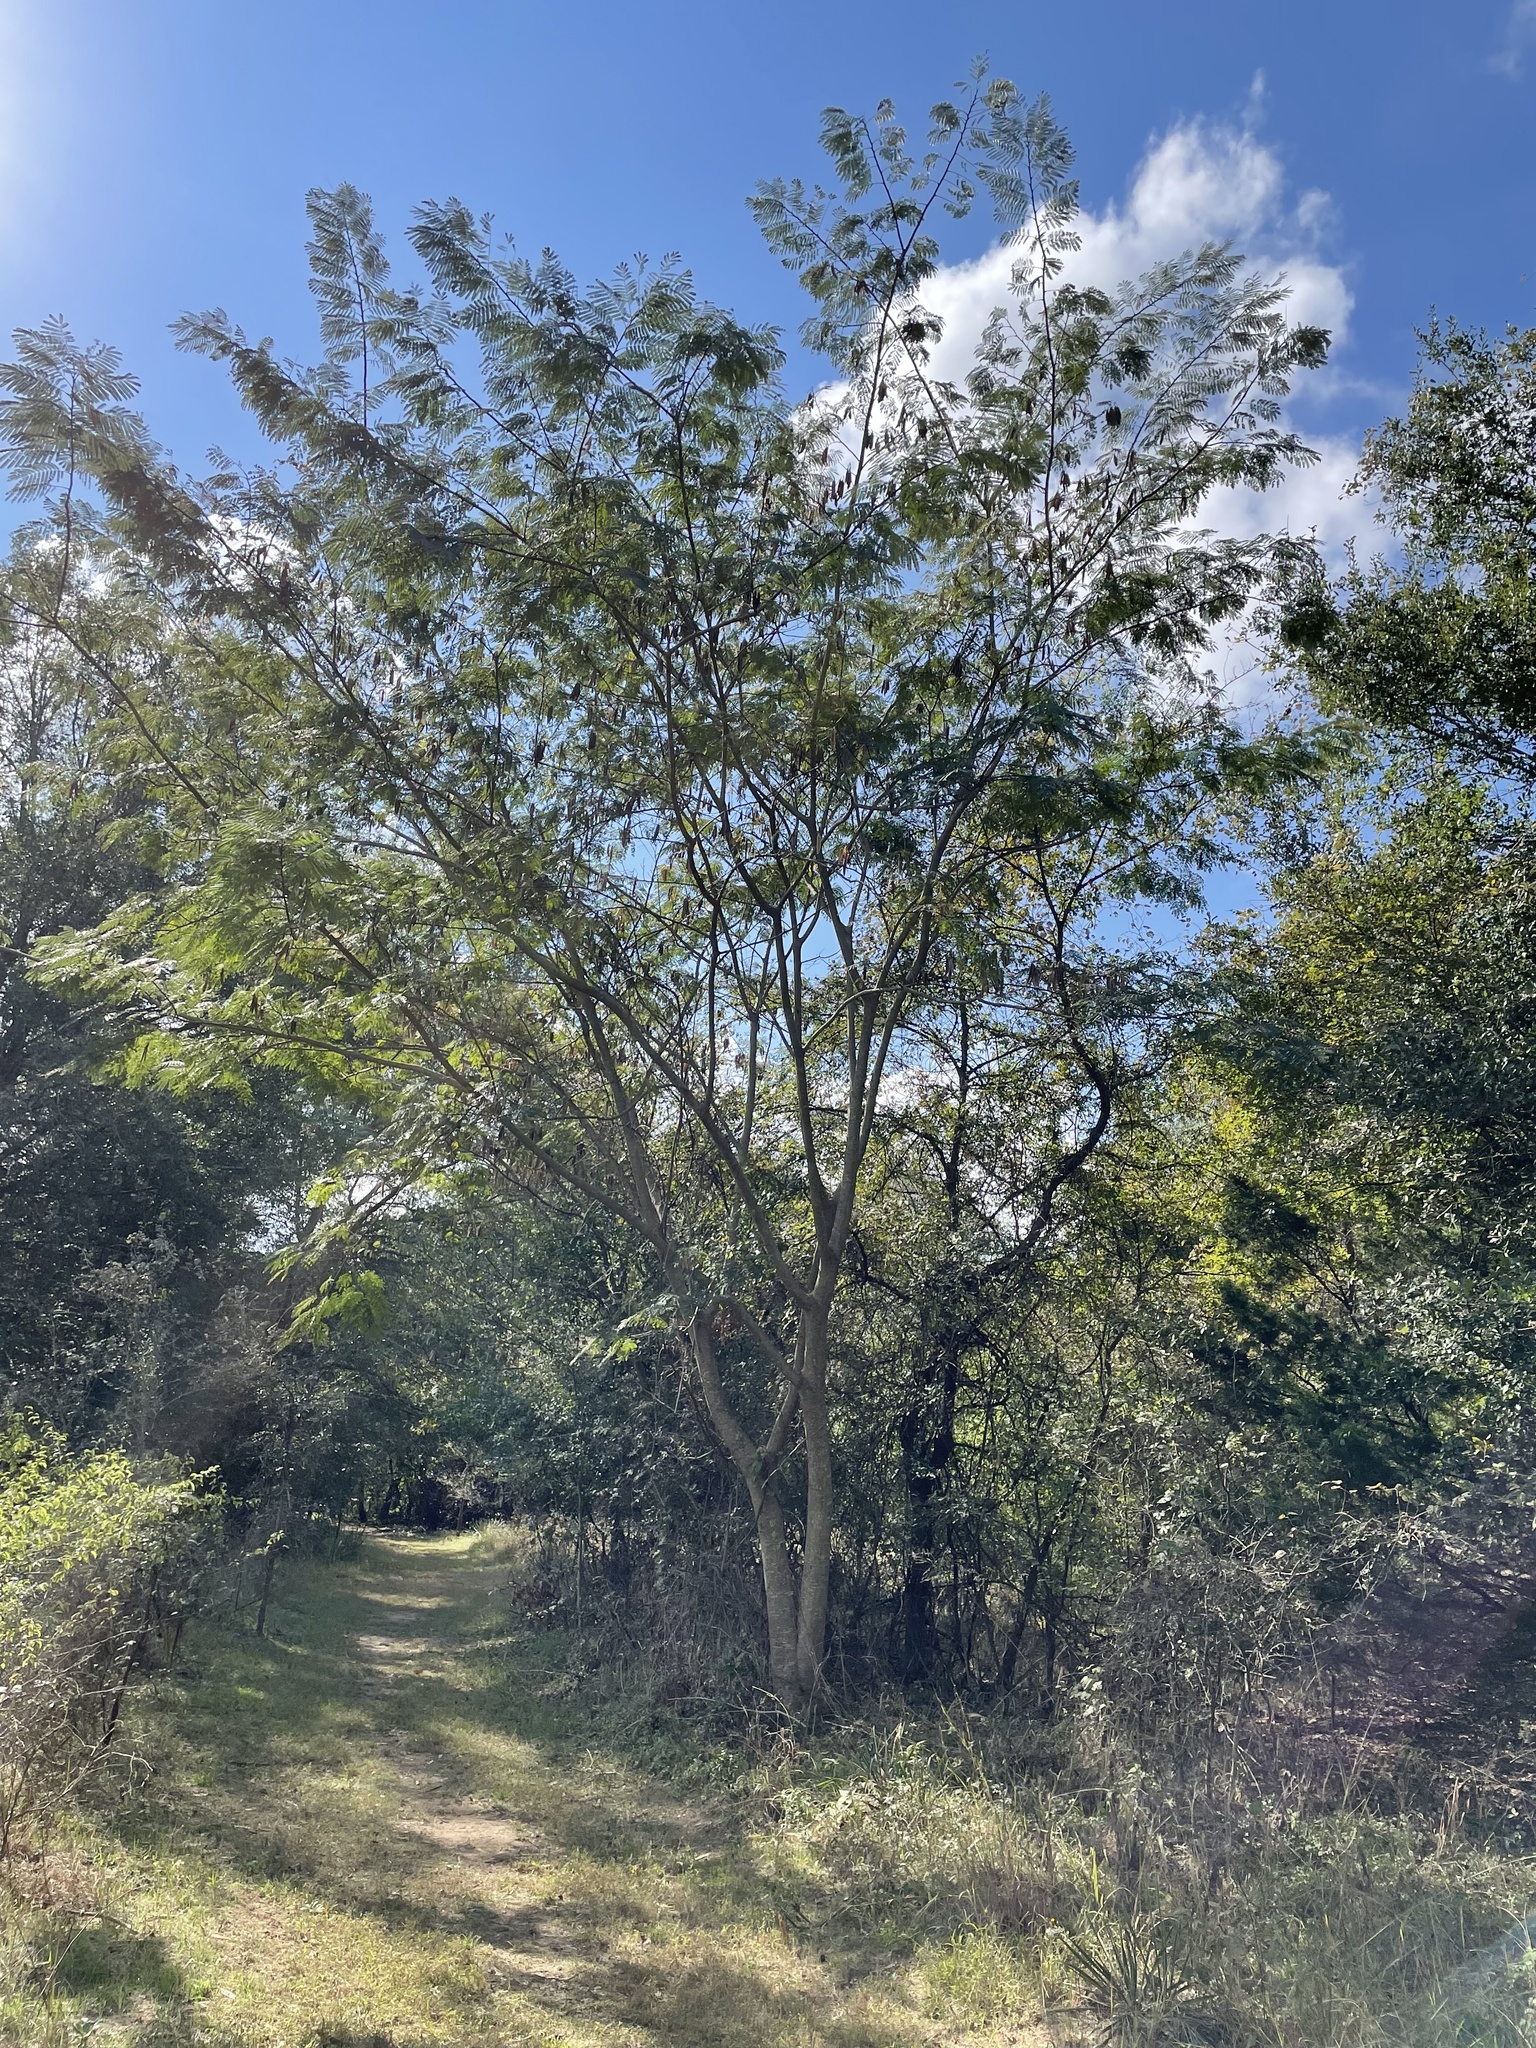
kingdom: Plantae
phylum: Tracheophyta
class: Magnoliopsida
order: Fabales
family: Fabaceae
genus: Albizia
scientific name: Albizia julibrissin
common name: Silktree
